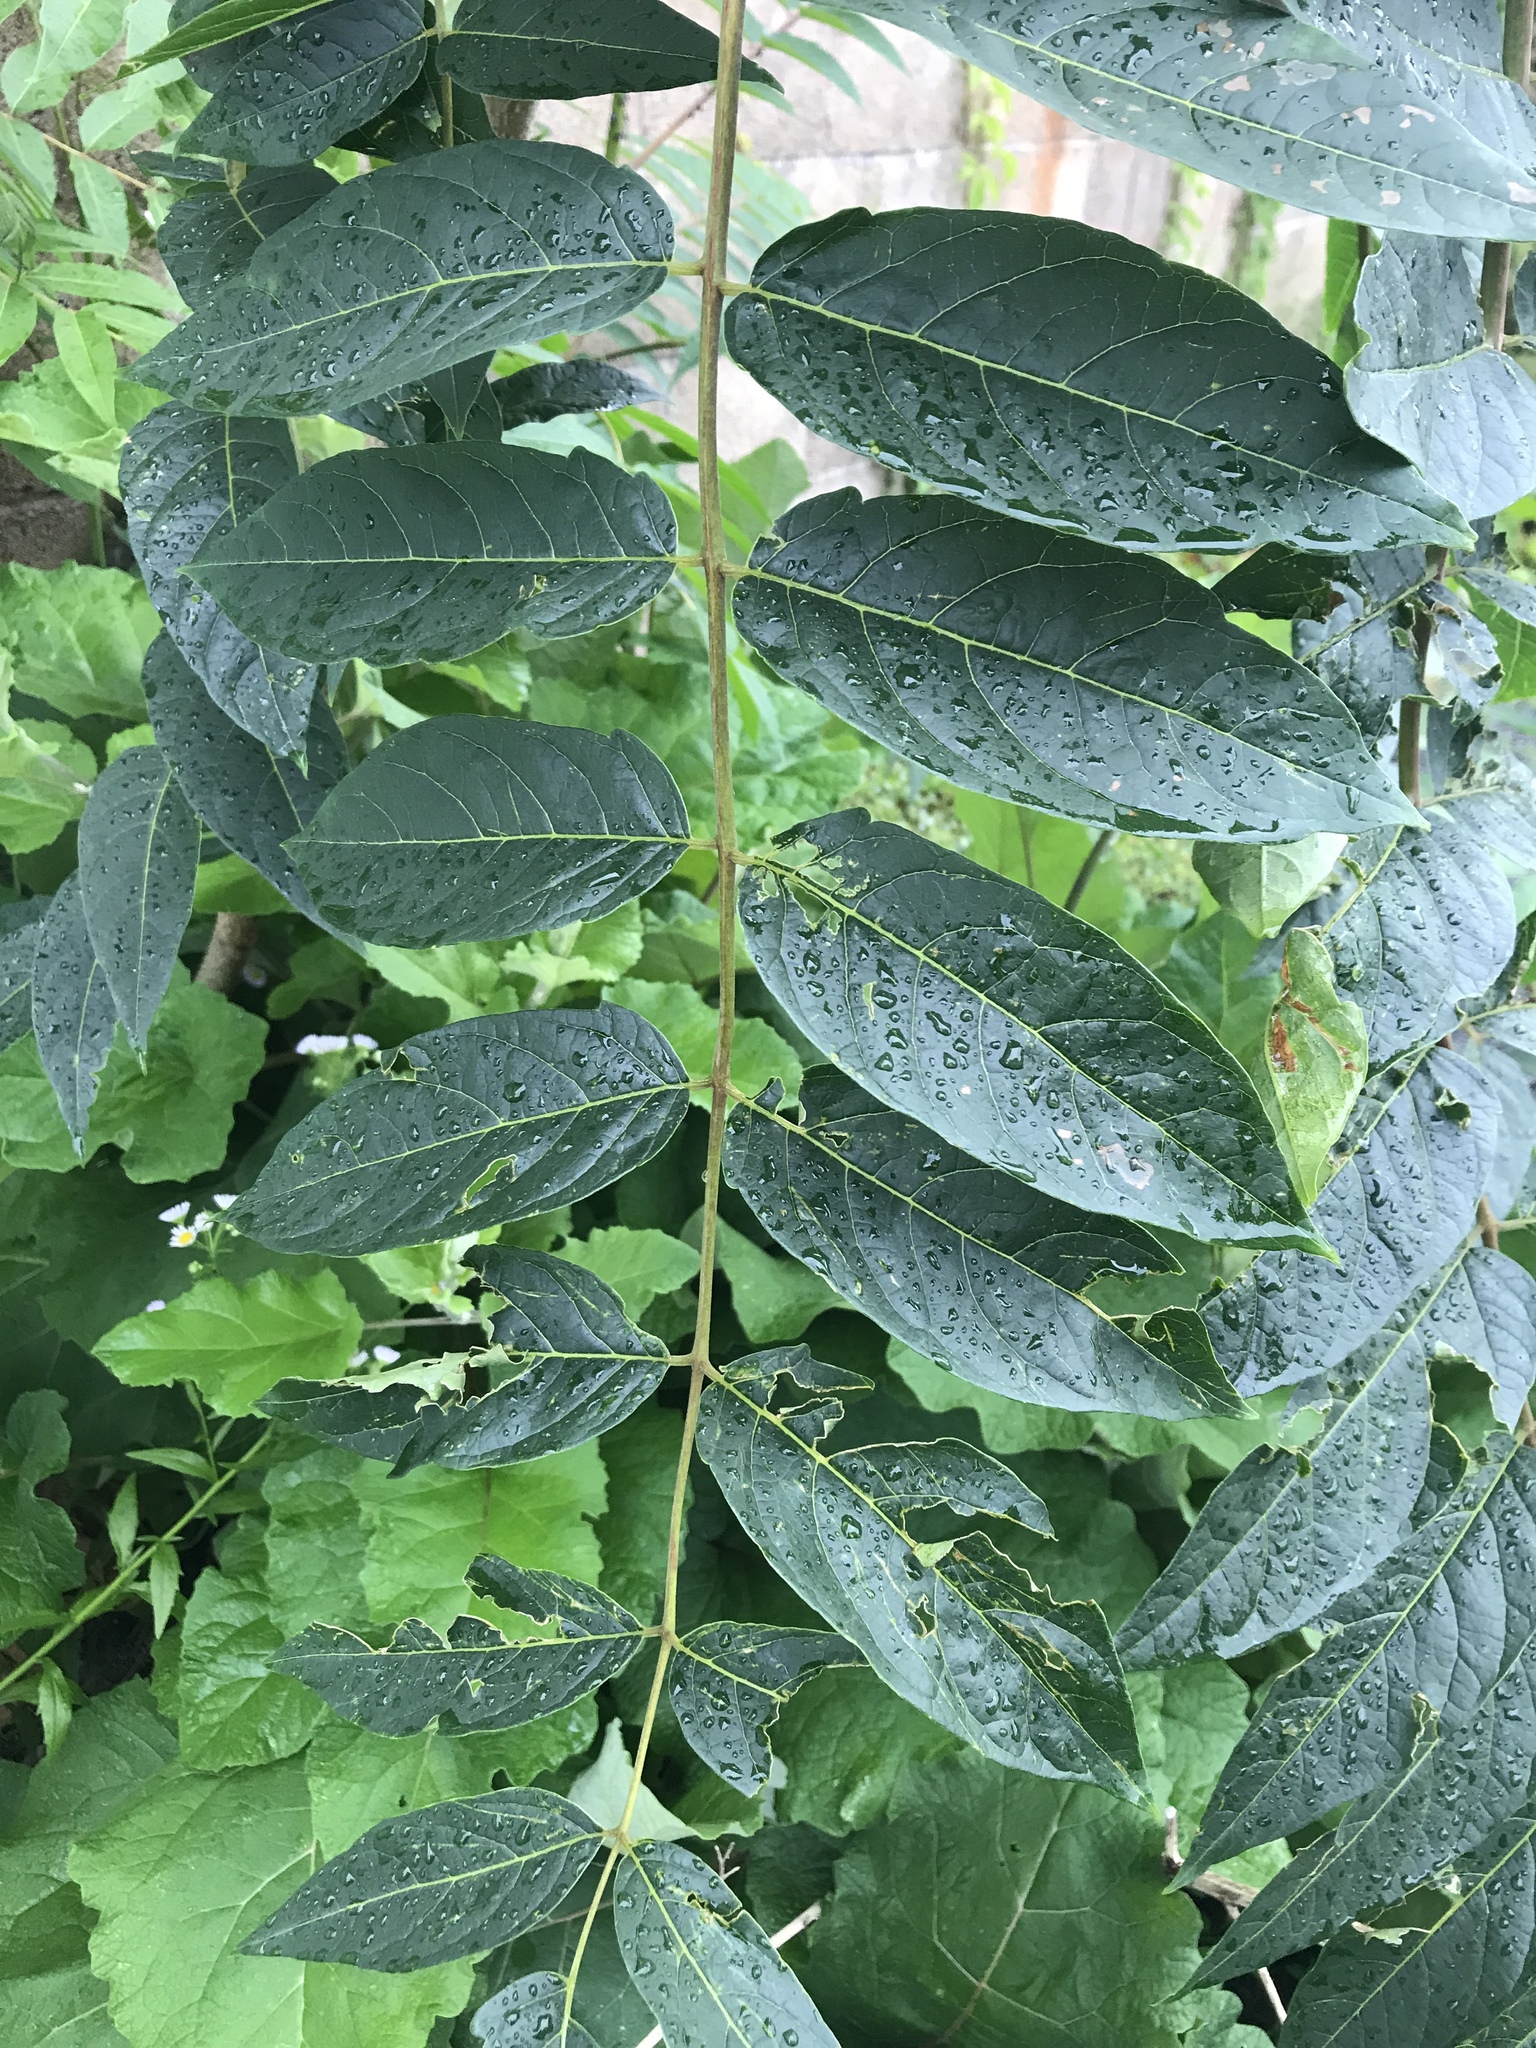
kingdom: Plantae
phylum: Tracheophyta
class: Magnoliopsida
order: Sapindales
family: Simaroubaceae
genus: Ailanthus
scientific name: Ailanthus altissima
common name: Tree-of-heaven
